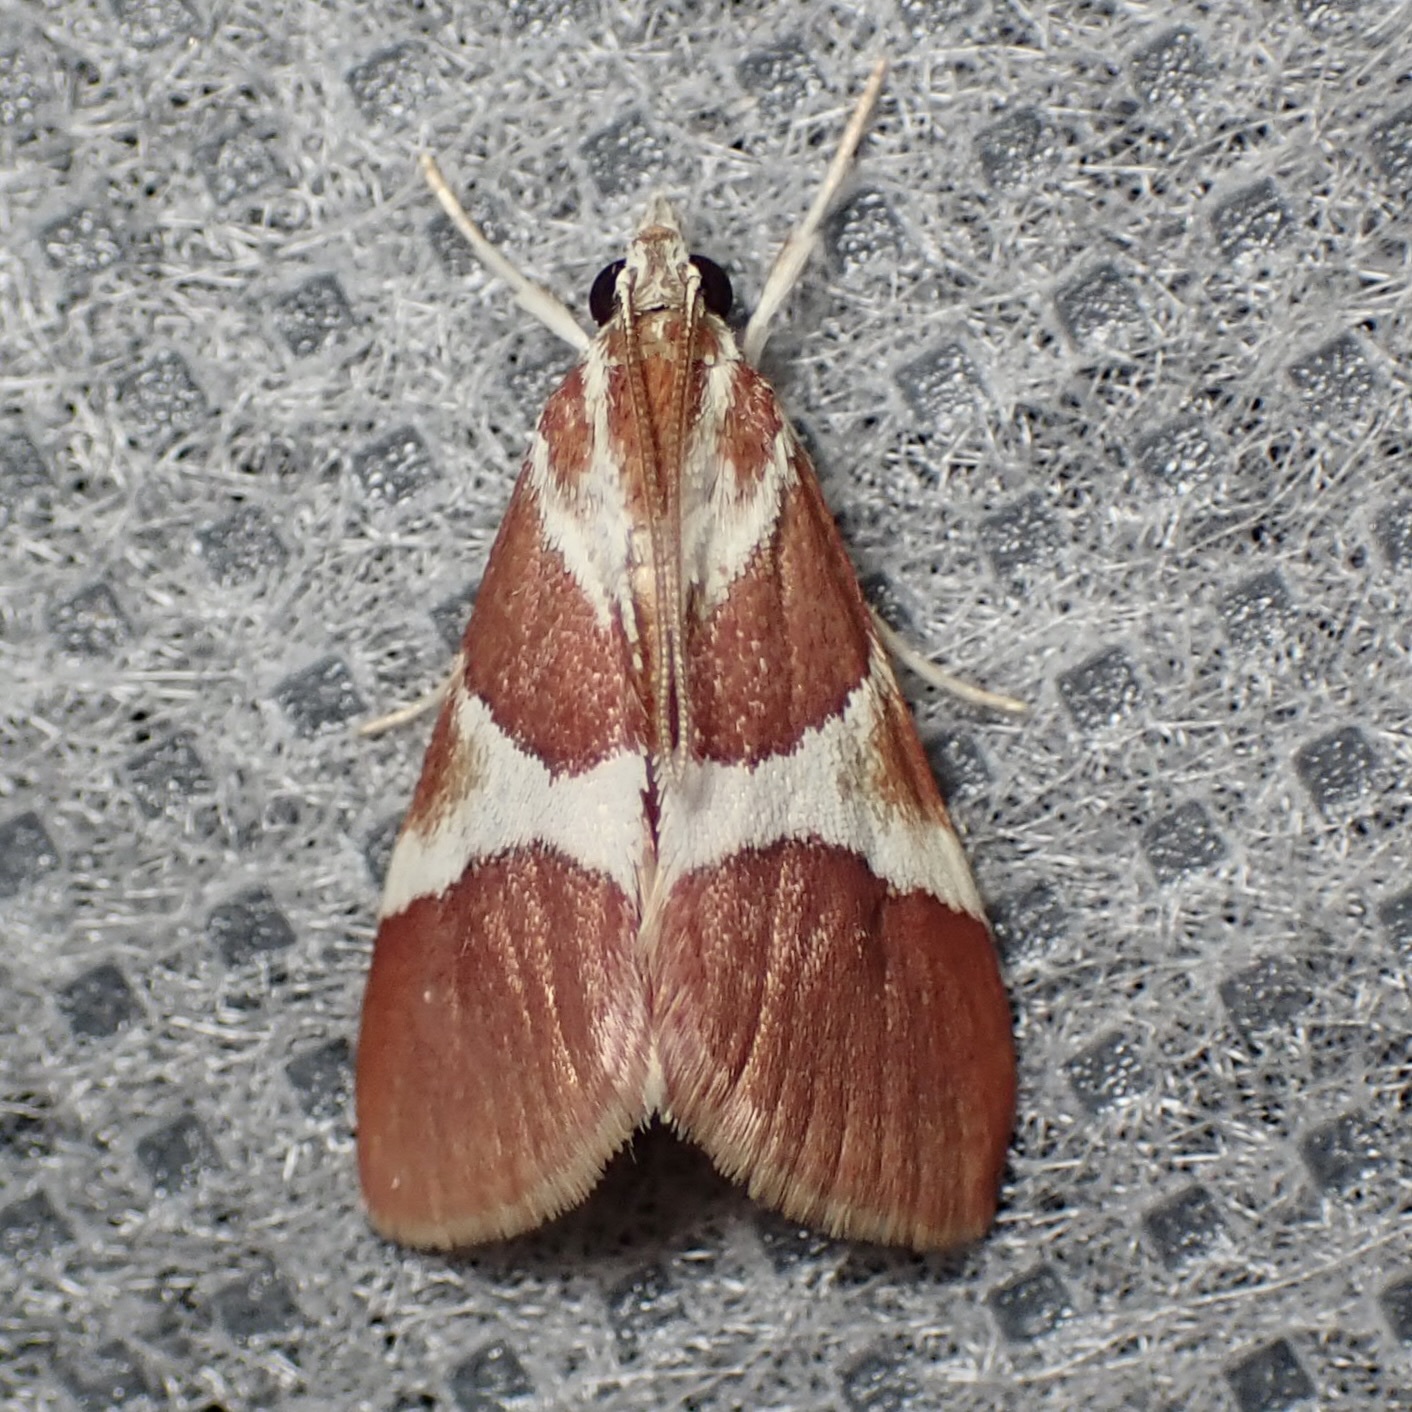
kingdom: Animalia
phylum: Arthropoda
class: Insecta
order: Lepidoptera
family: Crambidae
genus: Jativa
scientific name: Jativa castanealis
